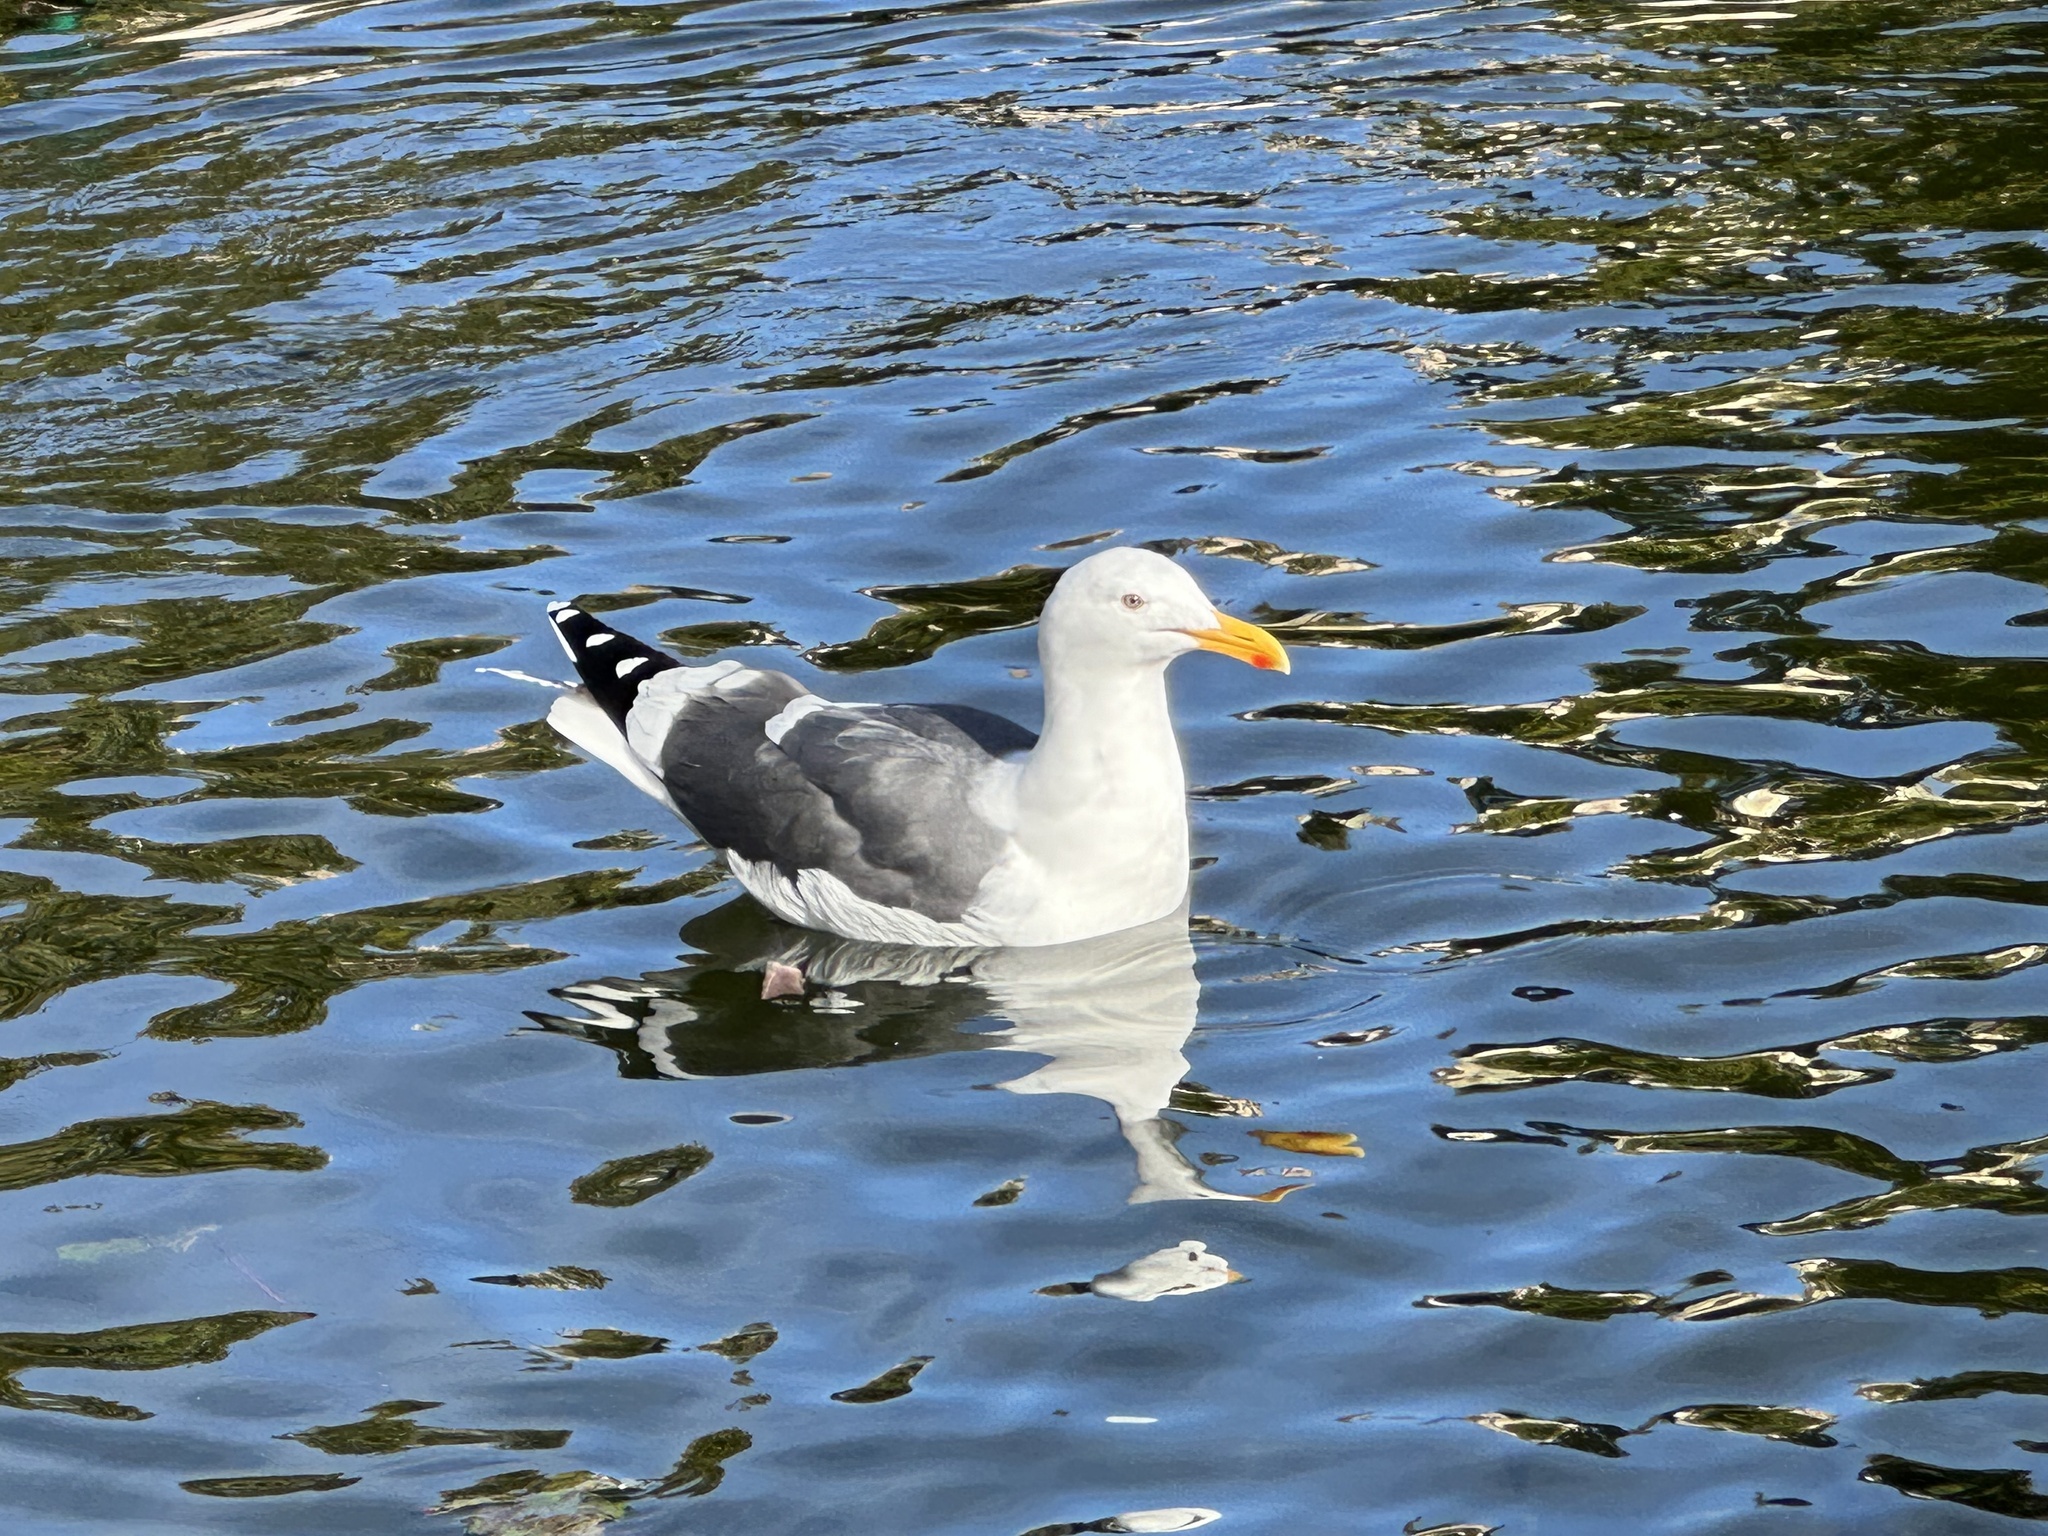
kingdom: Animalia
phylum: Chordata
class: Aves
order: Charadriiformes
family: Laridae
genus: Larus
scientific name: Larus occidentalis
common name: Western gull
